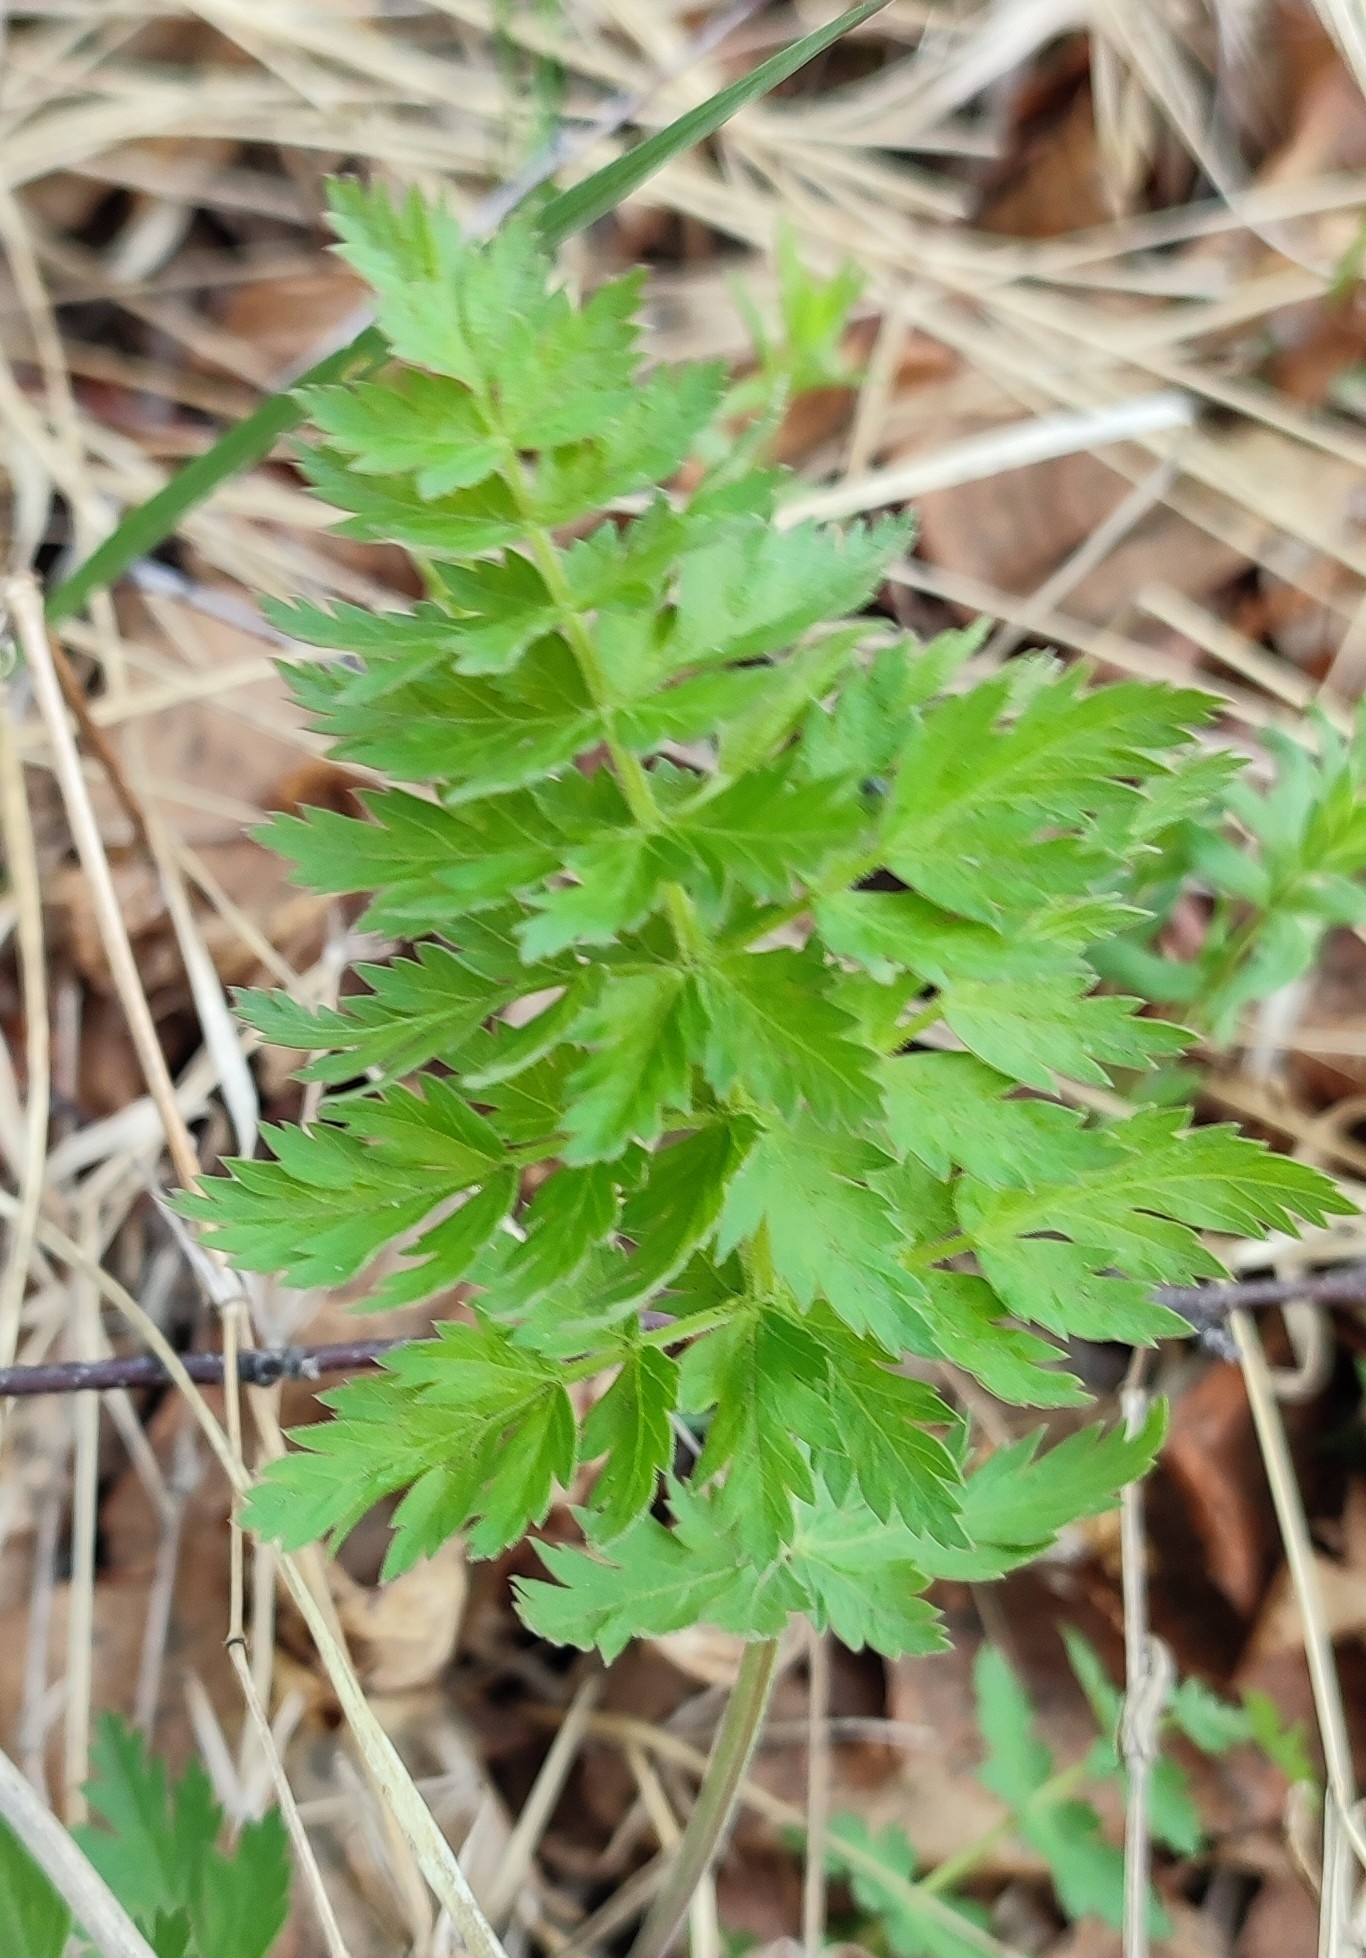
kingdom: Plantae
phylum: Tracheophyta
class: Magnoliopsida
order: Apiales
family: Apiaceae
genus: Seseli
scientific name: Seseli libanotis
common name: Mooncarrot
